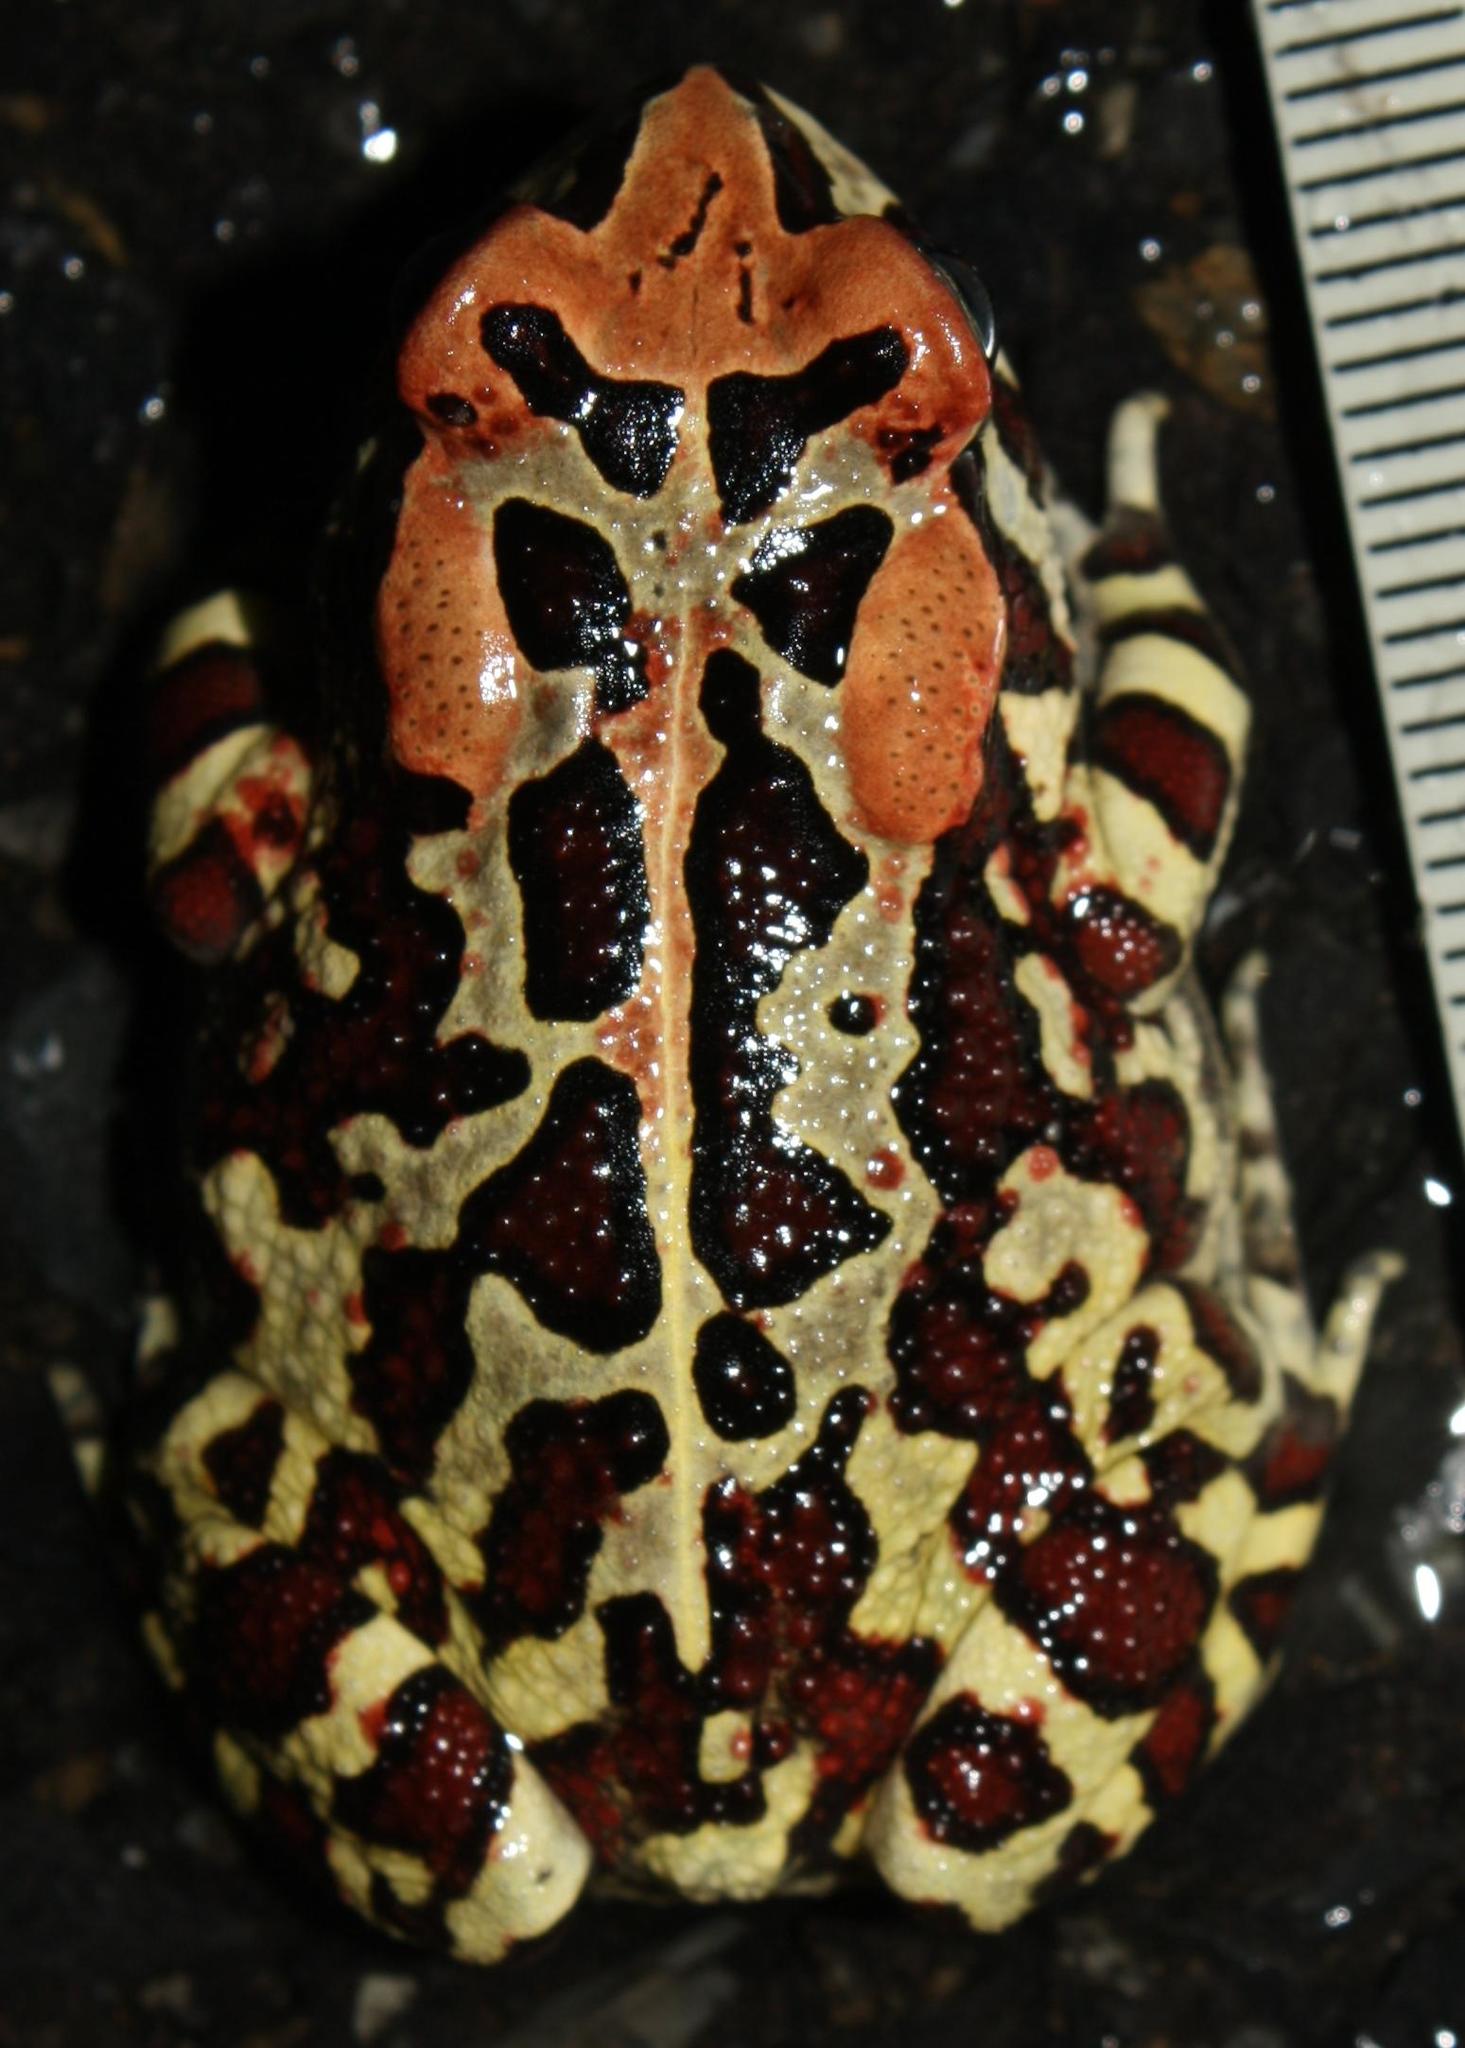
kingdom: Animalia
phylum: Chordata
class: Amphibia
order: Anura
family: Bufonidae
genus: Sclerophrys
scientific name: Sclerophrys pantherina
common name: Panther toad
